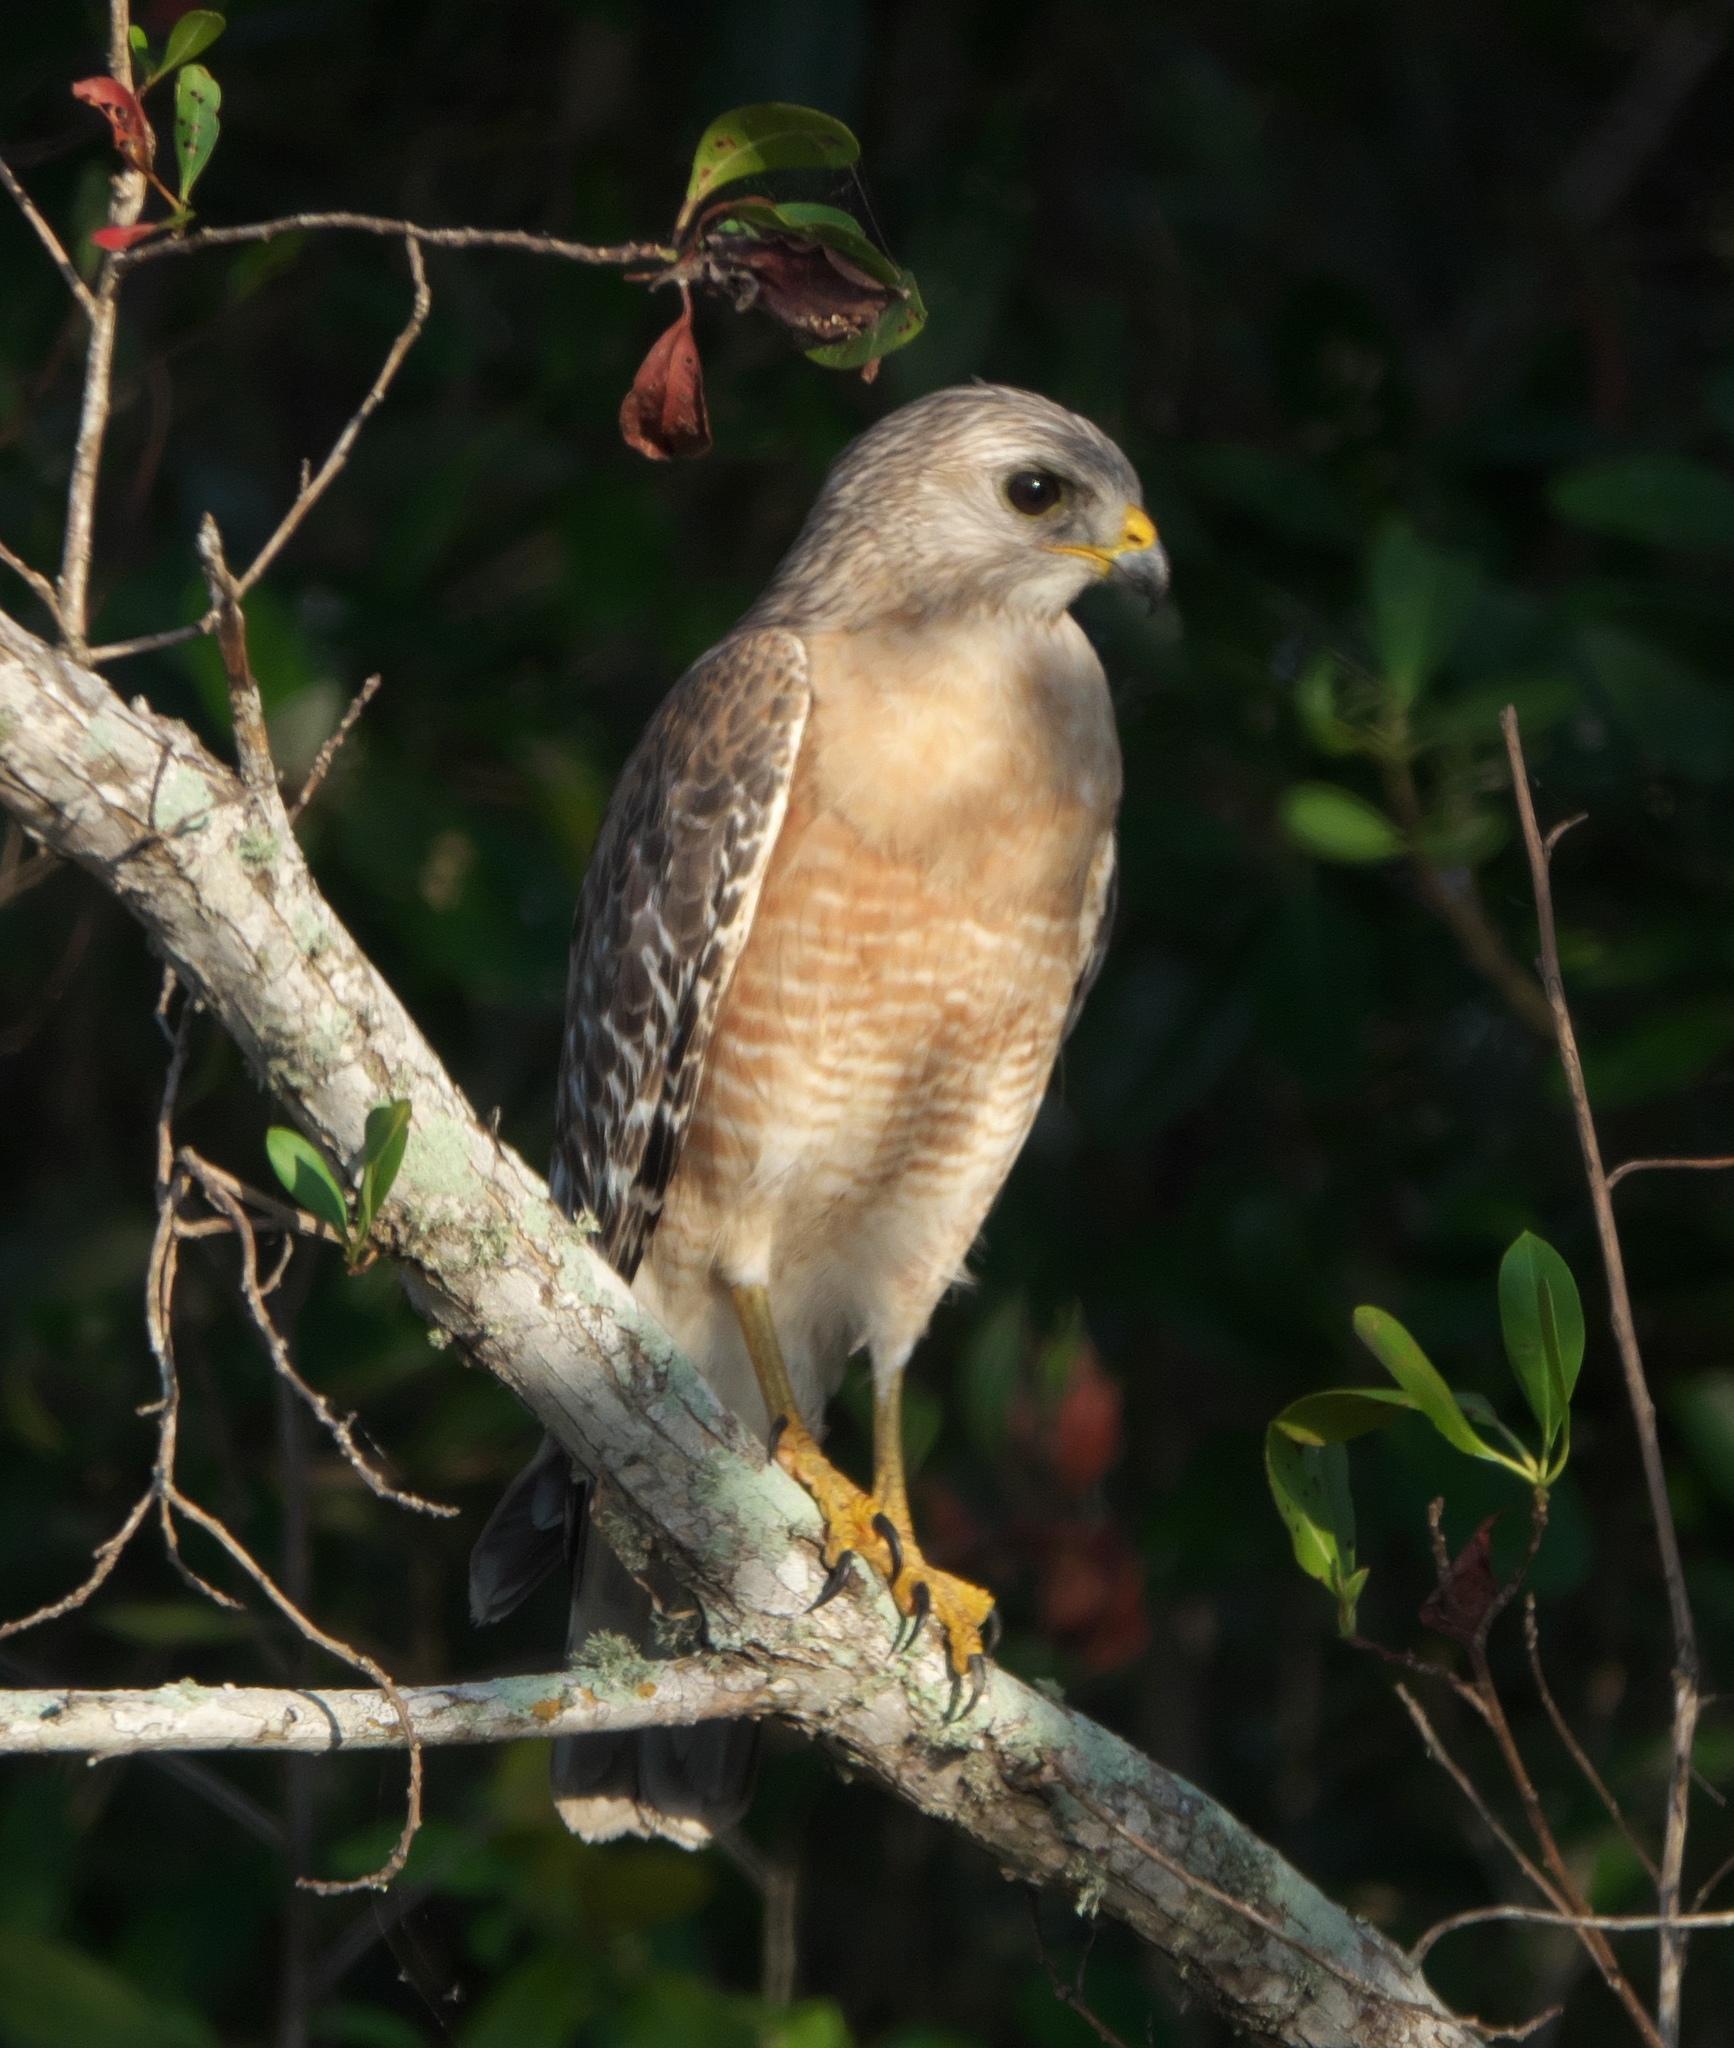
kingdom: Animalia
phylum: Chordata
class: Aves
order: Accipitriformes
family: Accipitridae
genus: Buteo
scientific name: Buteo lineatus
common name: Red-shouldered hawk
